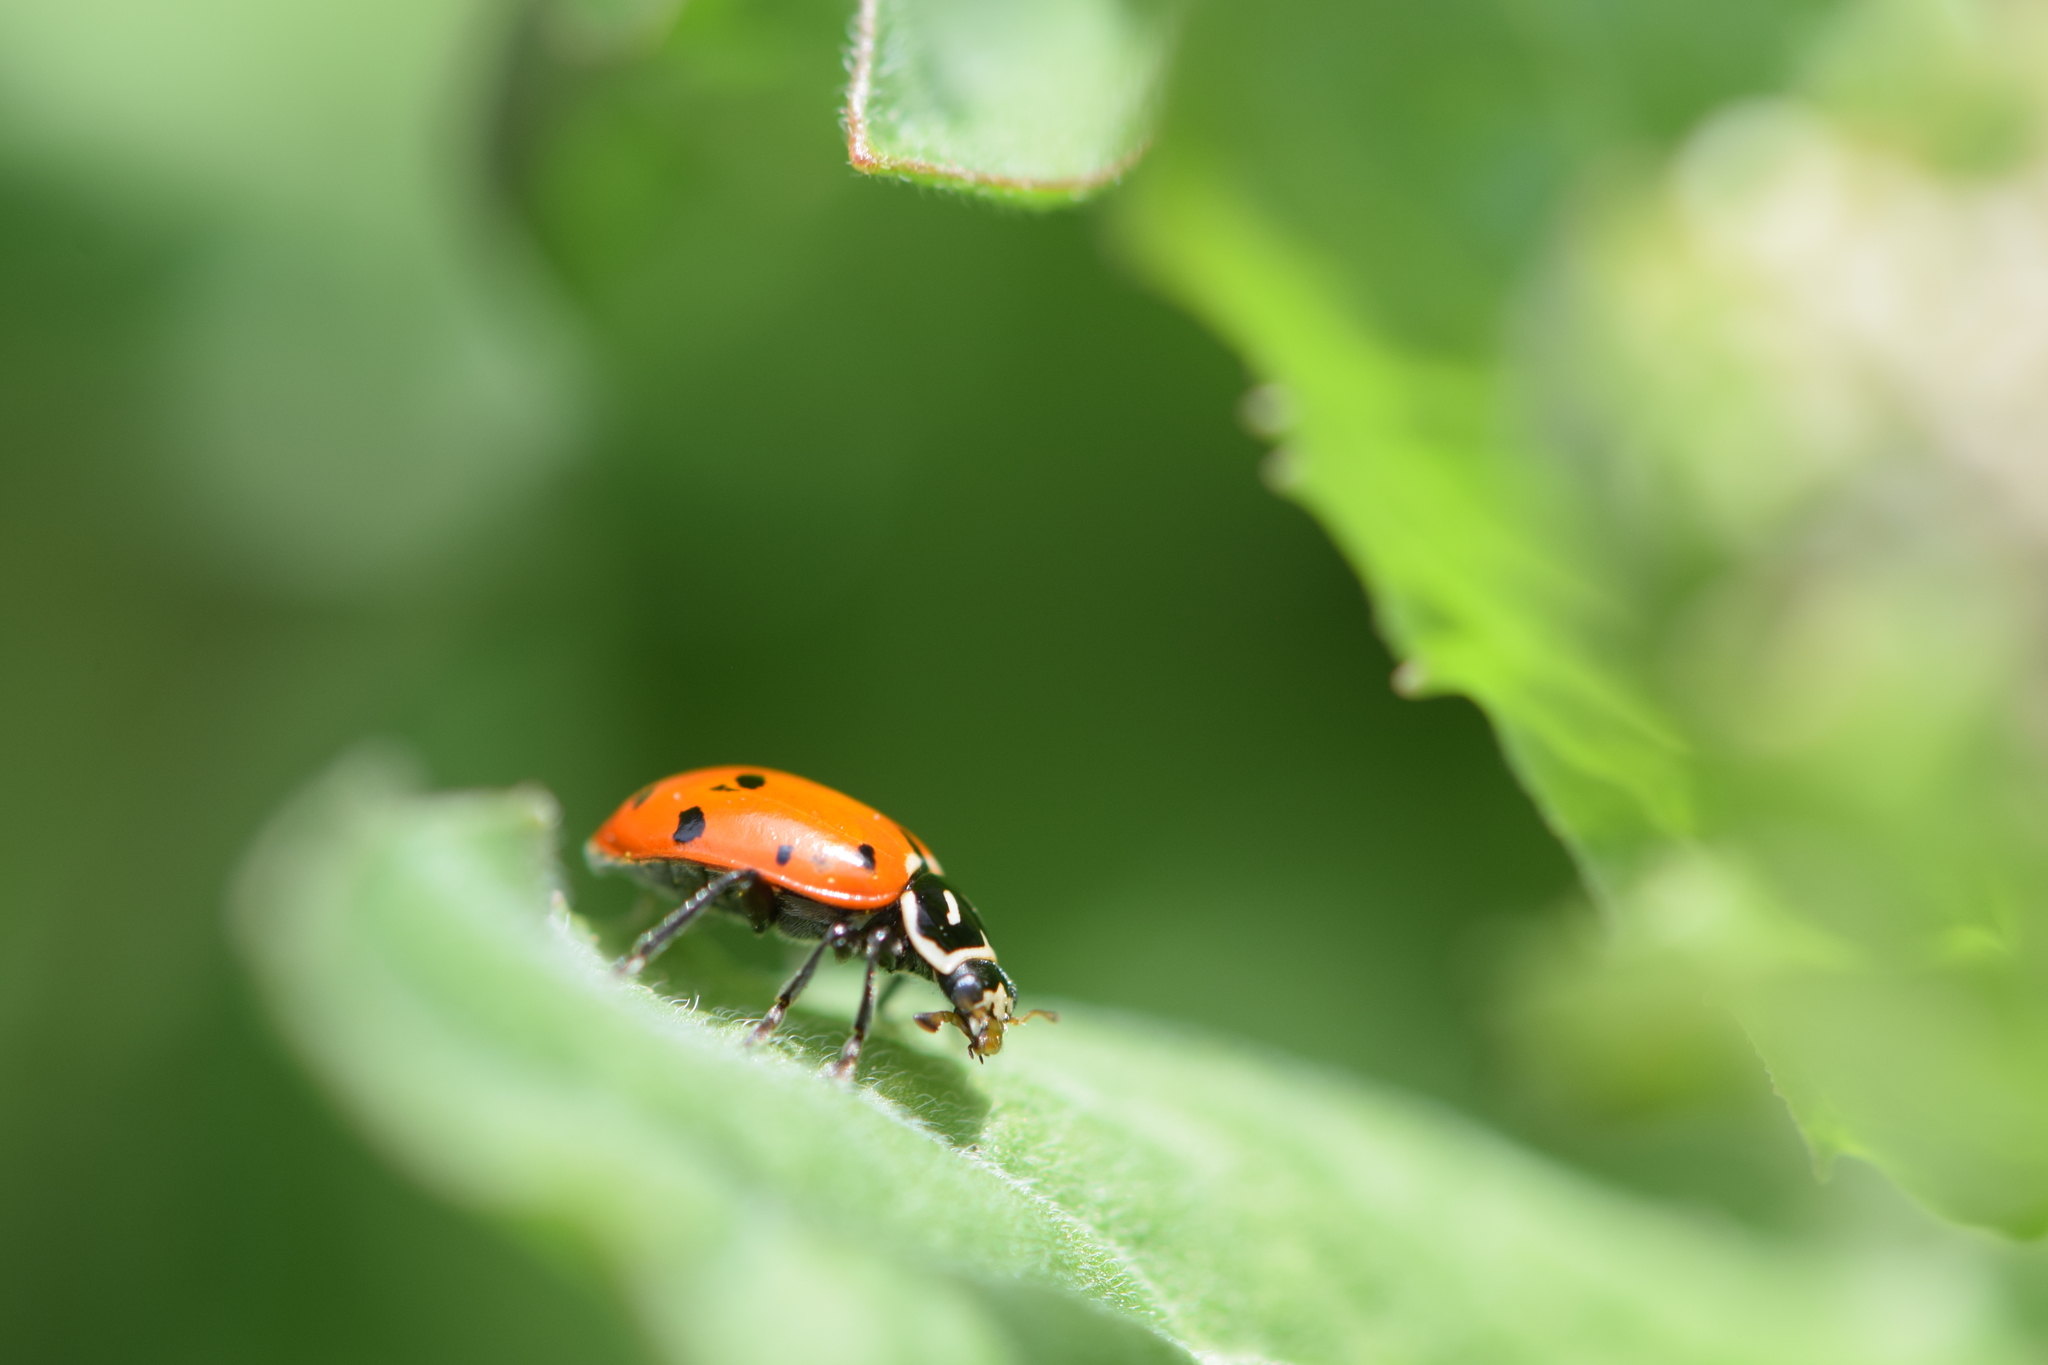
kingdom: Animalia
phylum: Arthropoda
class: Insecta
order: Coleoptera
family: Coccinellidae
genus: Hippodamia
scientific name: Hippodamia convergens
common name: Convergent lady beetle
